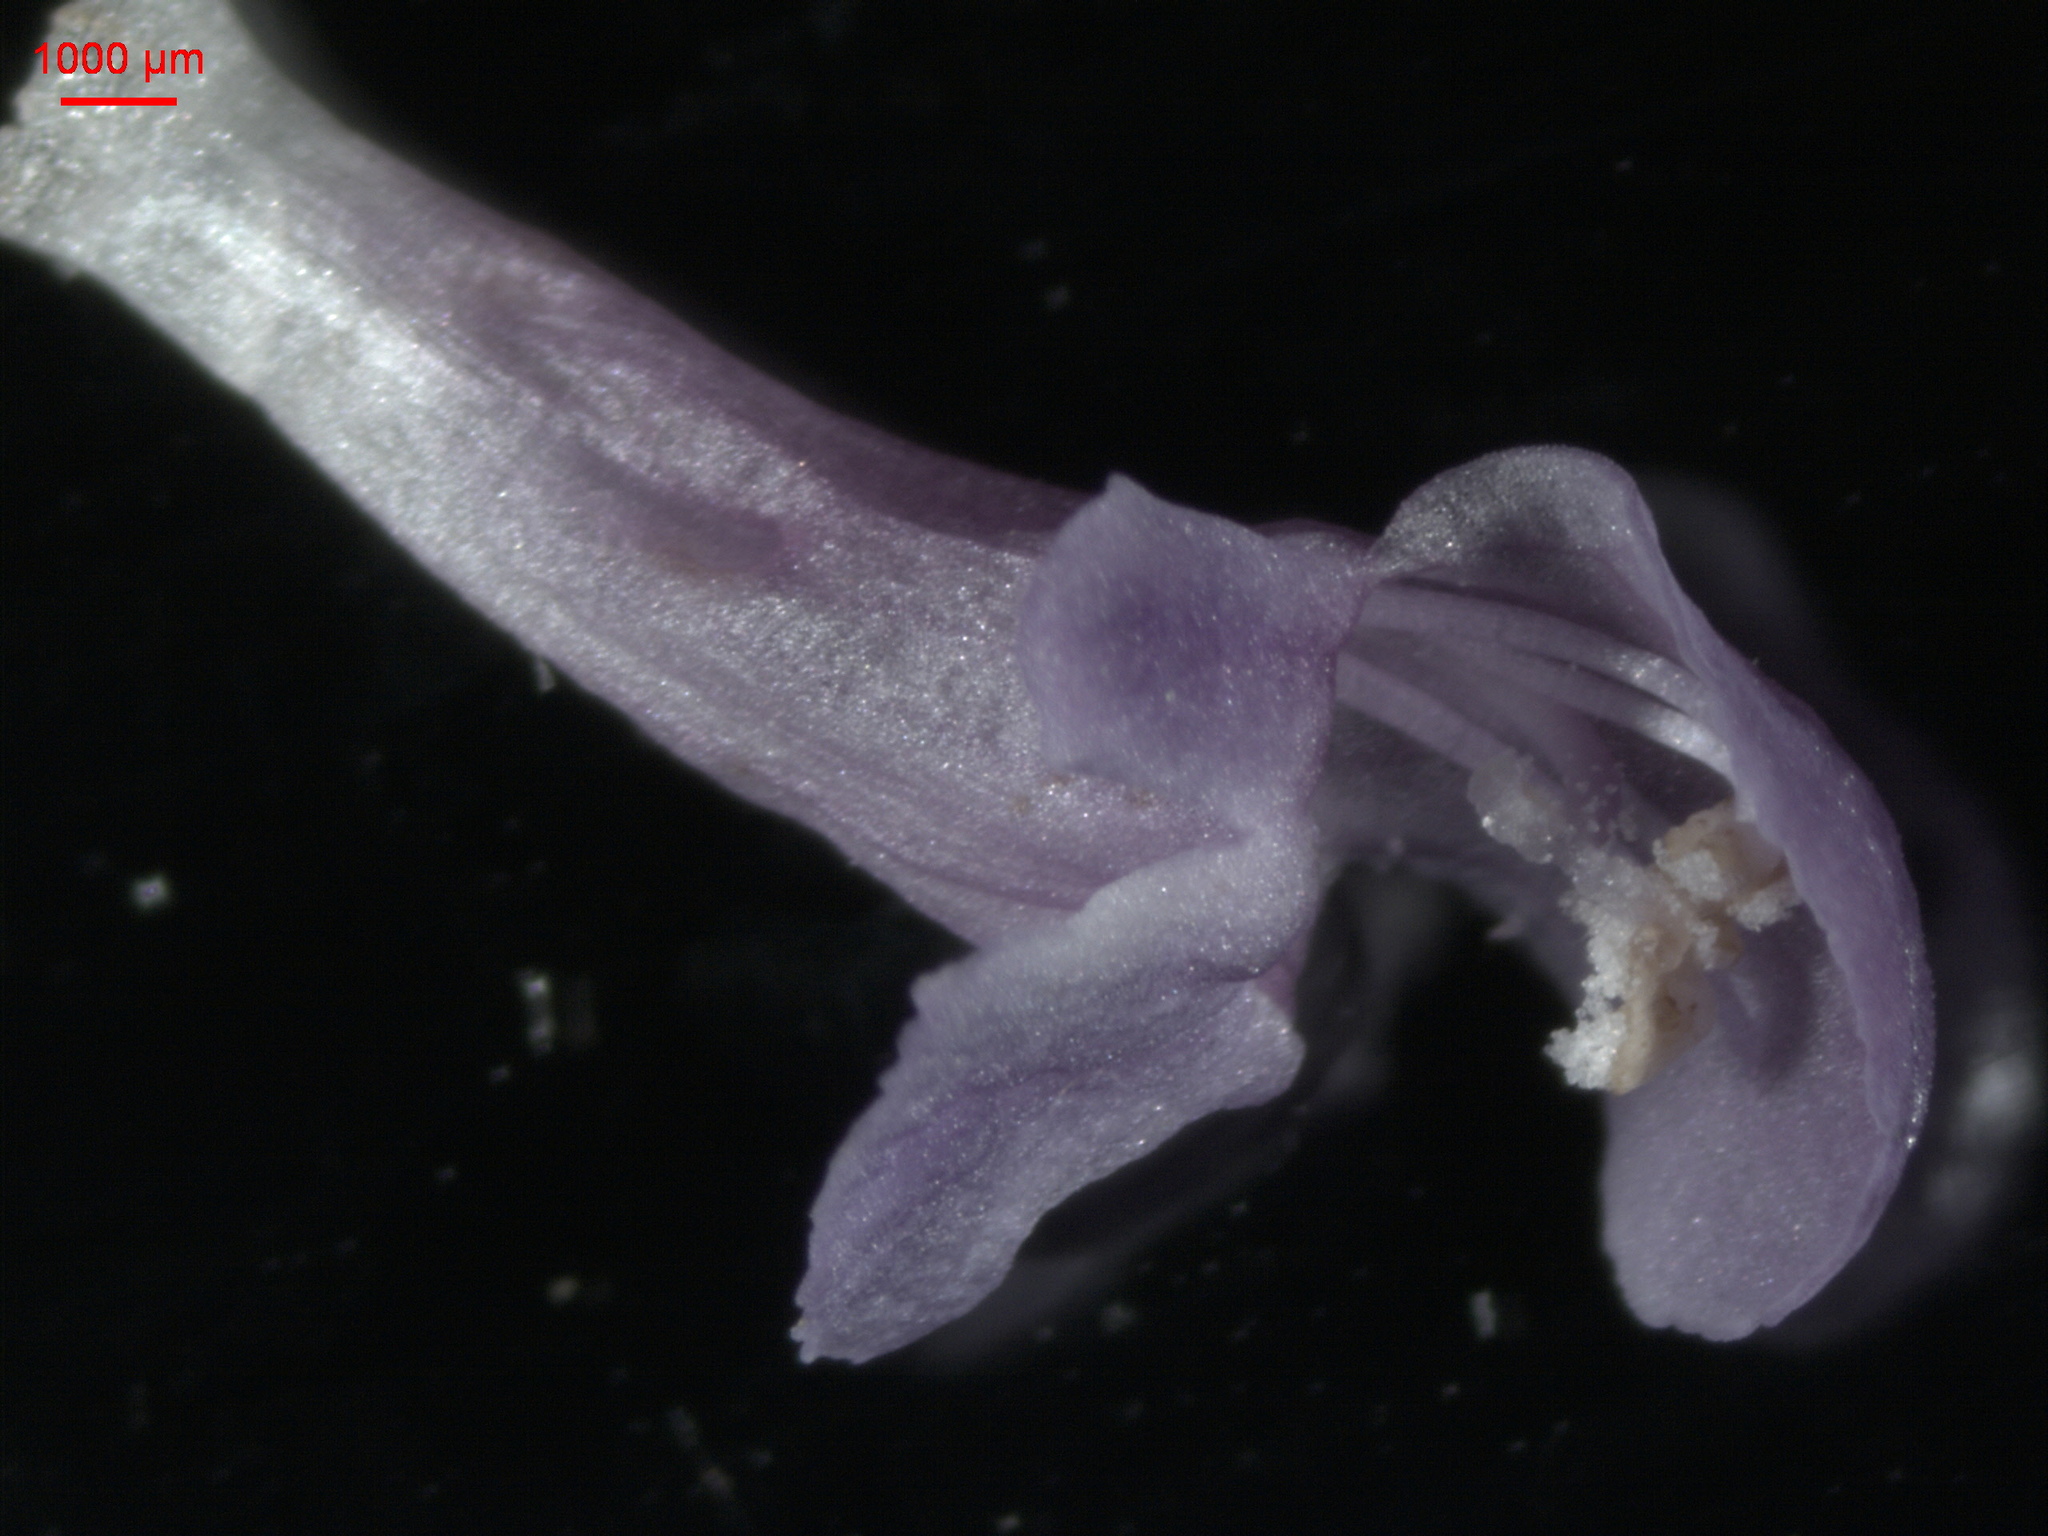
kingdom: Plantae
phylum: Tracheophyta
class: Magnoliopsida
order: Lamiales
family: Lamiaceae
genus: Prunella
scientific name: Prunella vulgaris
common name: Heal-all
